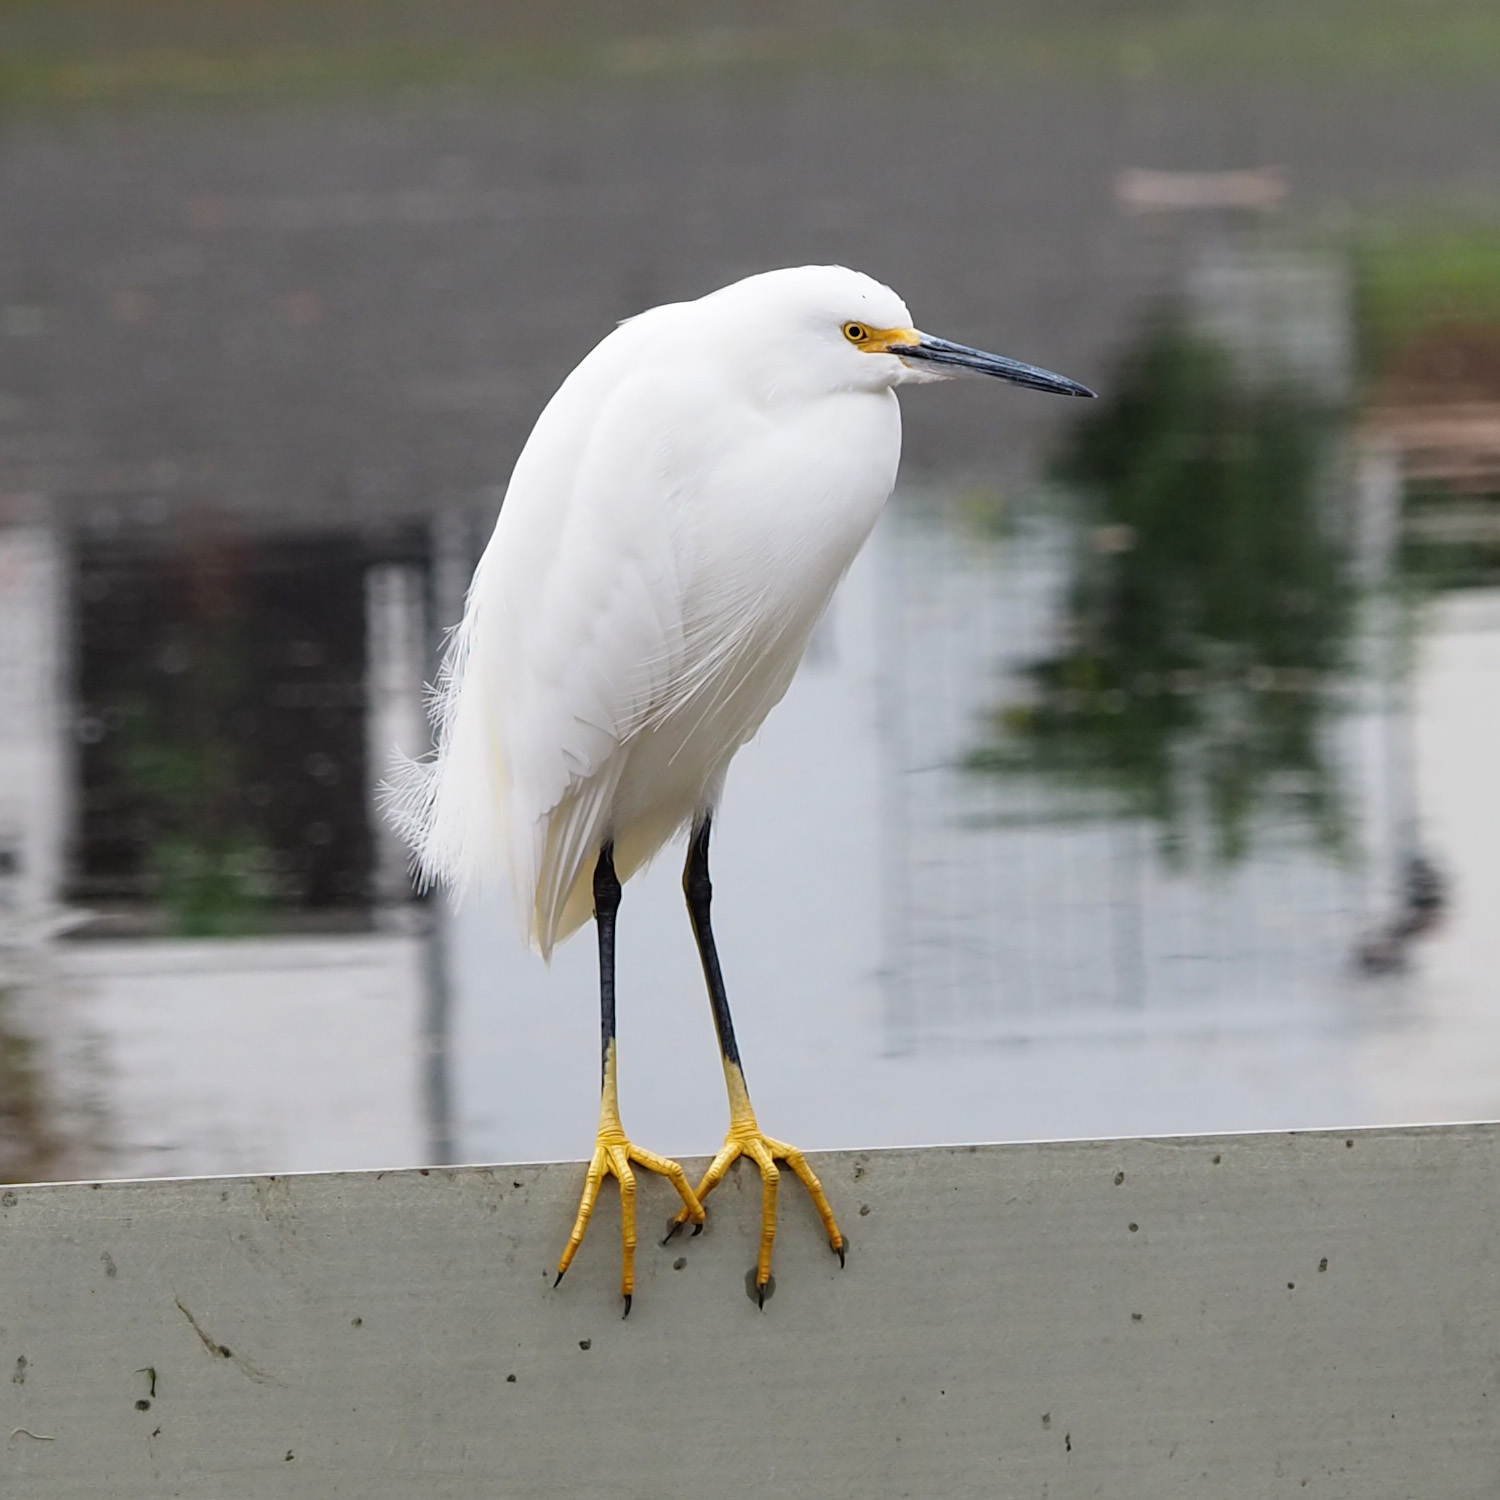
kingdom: Animalia
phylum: Chordata
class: Aves
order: Pelecaniformes
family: Ardeidae
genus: Egretta
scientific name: Egretta thula
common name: Snowy egret
